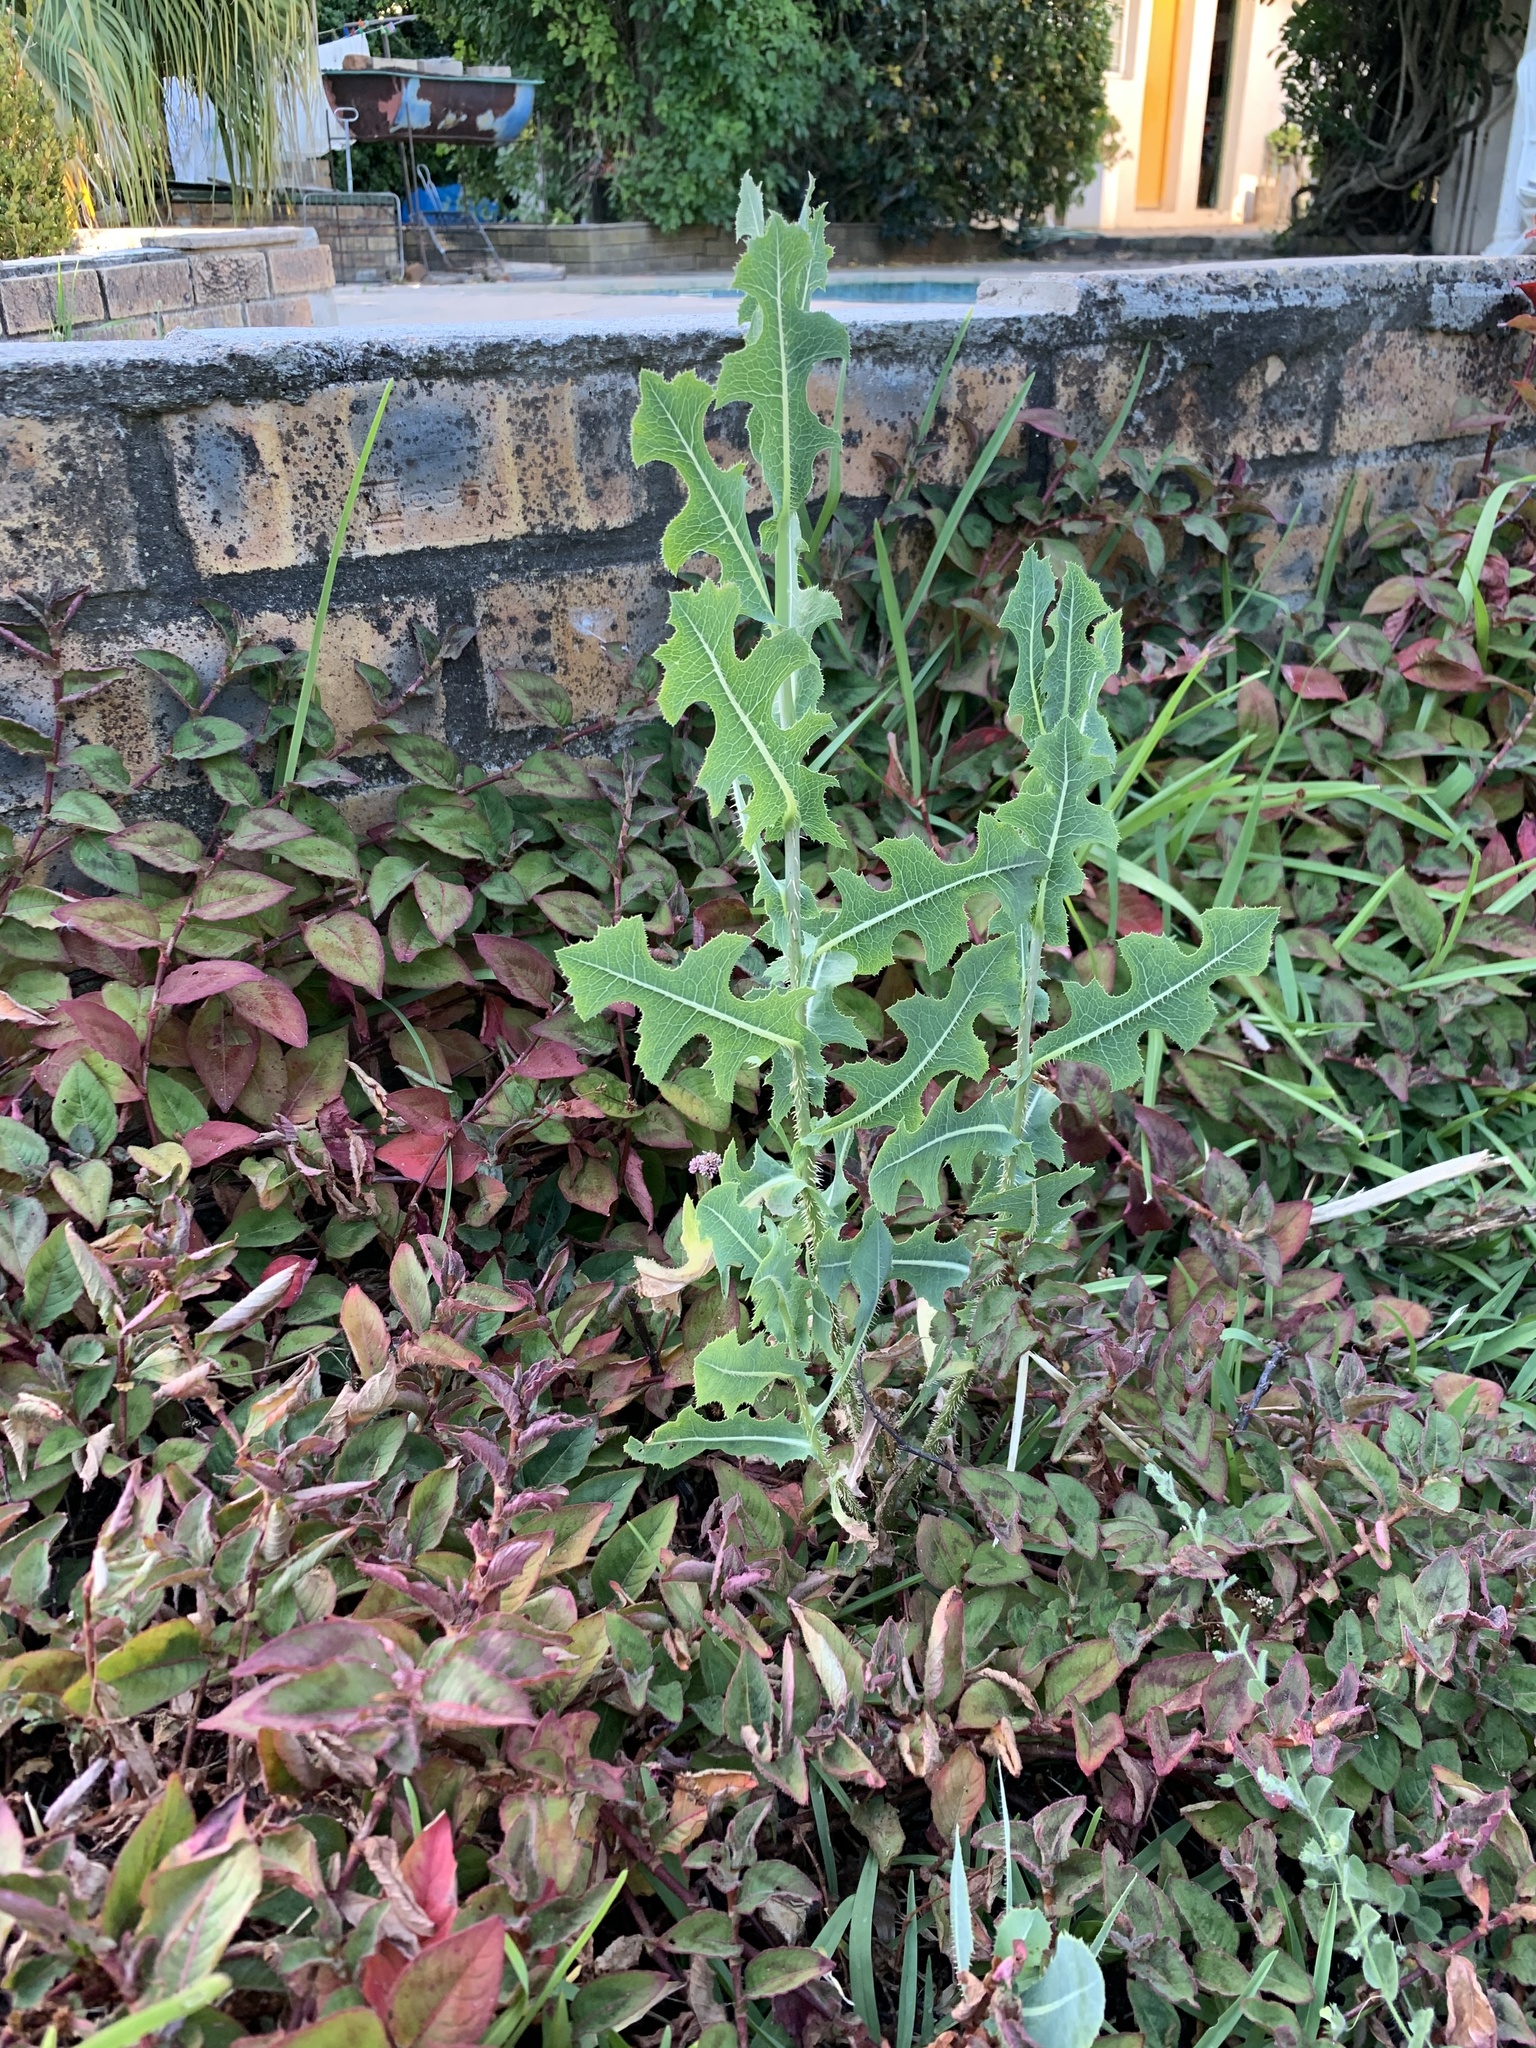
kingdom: Plantae
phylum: Tracheophyta
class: Magnoliopsida
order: Asterales
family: Asteraceae
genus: Lactuca
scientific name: Lactuca serriola
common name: Prickly lettuce
